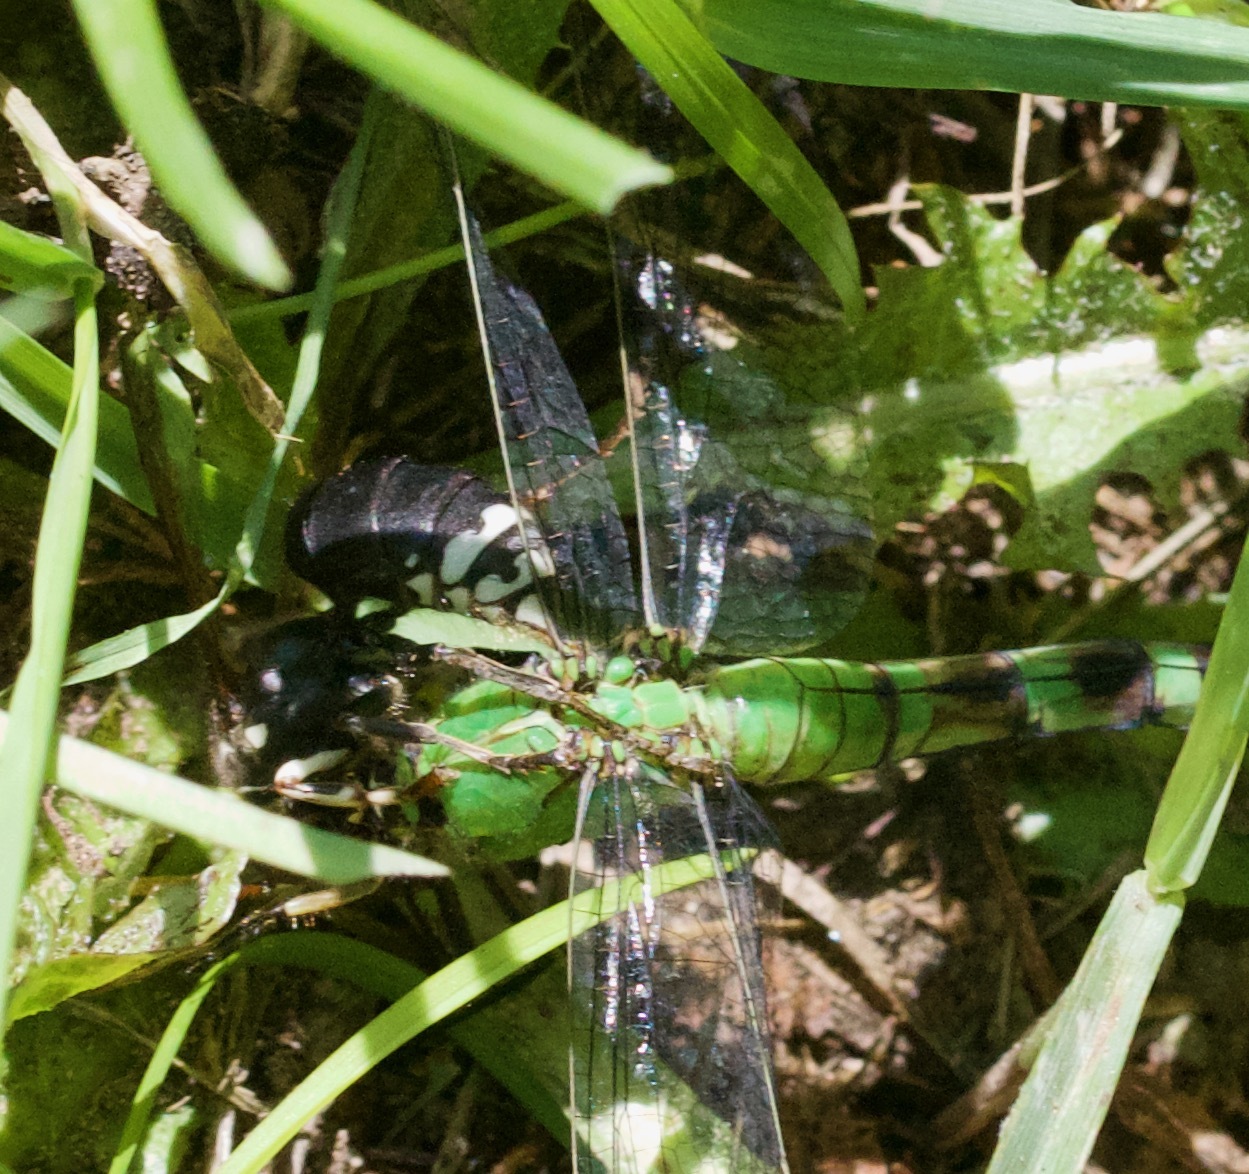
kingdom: Animalia
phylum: Arthropoda
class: Insecta
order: Hymenoptera
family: Vespidae
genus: Dolichovespula
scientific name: Dolichovespula maculata
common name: Bald-faced hornet
